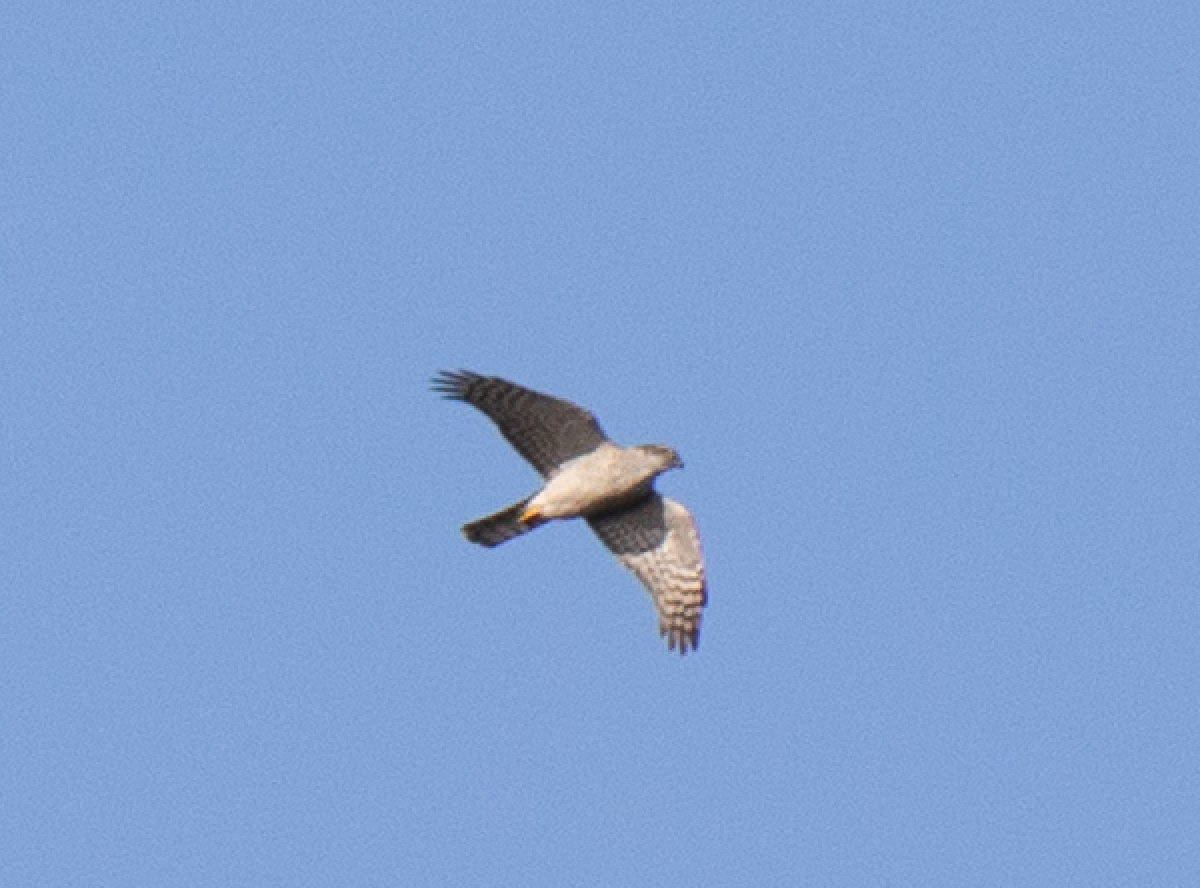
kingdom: Animalia
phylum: Chordata
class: Aves
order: Accipitriformes
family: Accipitridae
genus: Accipiter
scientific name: Accipiter nisus
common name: Eurasian sparrowhawk
